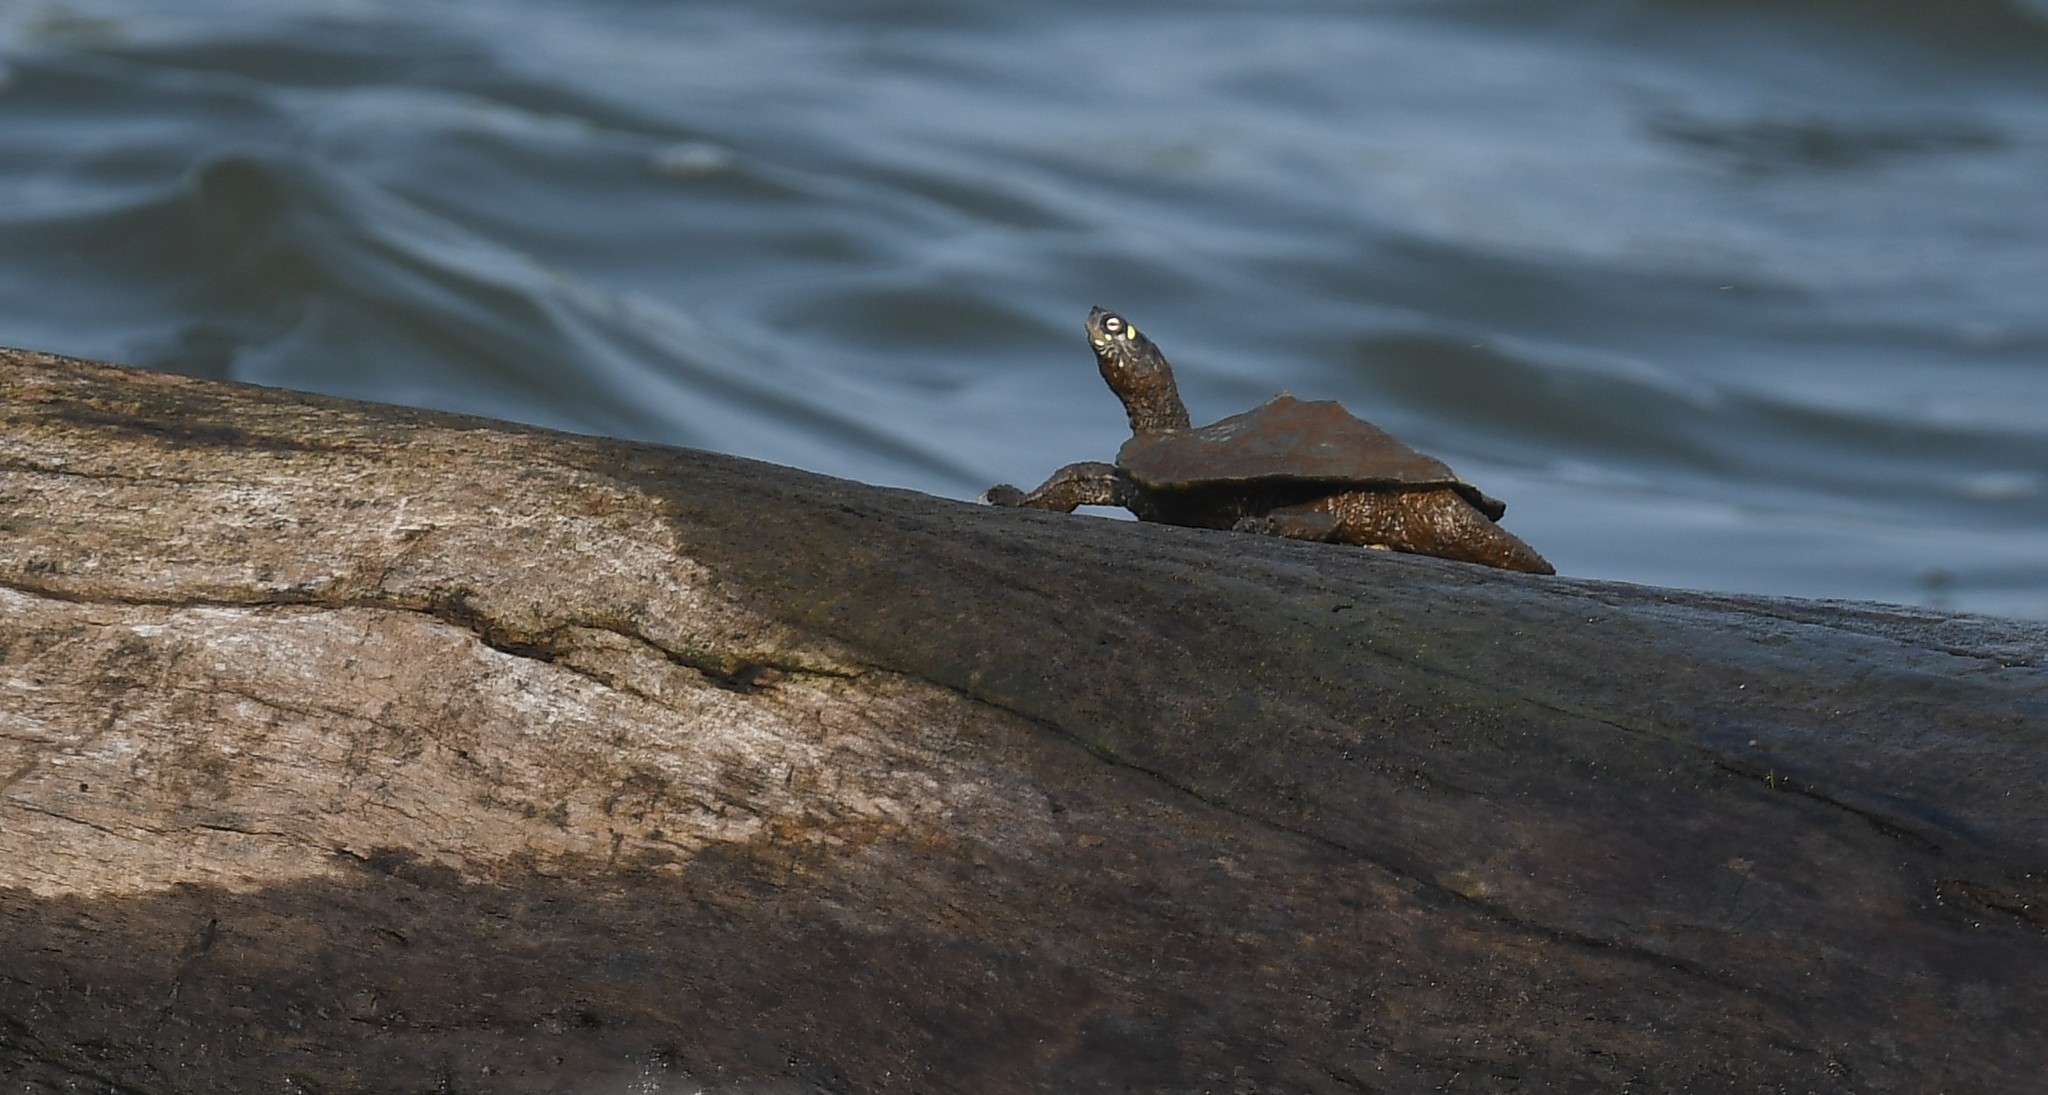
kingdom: Animalia
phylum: Chordata
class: Testudines
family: Emydidae
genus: Graptemys
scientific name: Graptemys ouachitensis
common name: Ouachita map turtle
